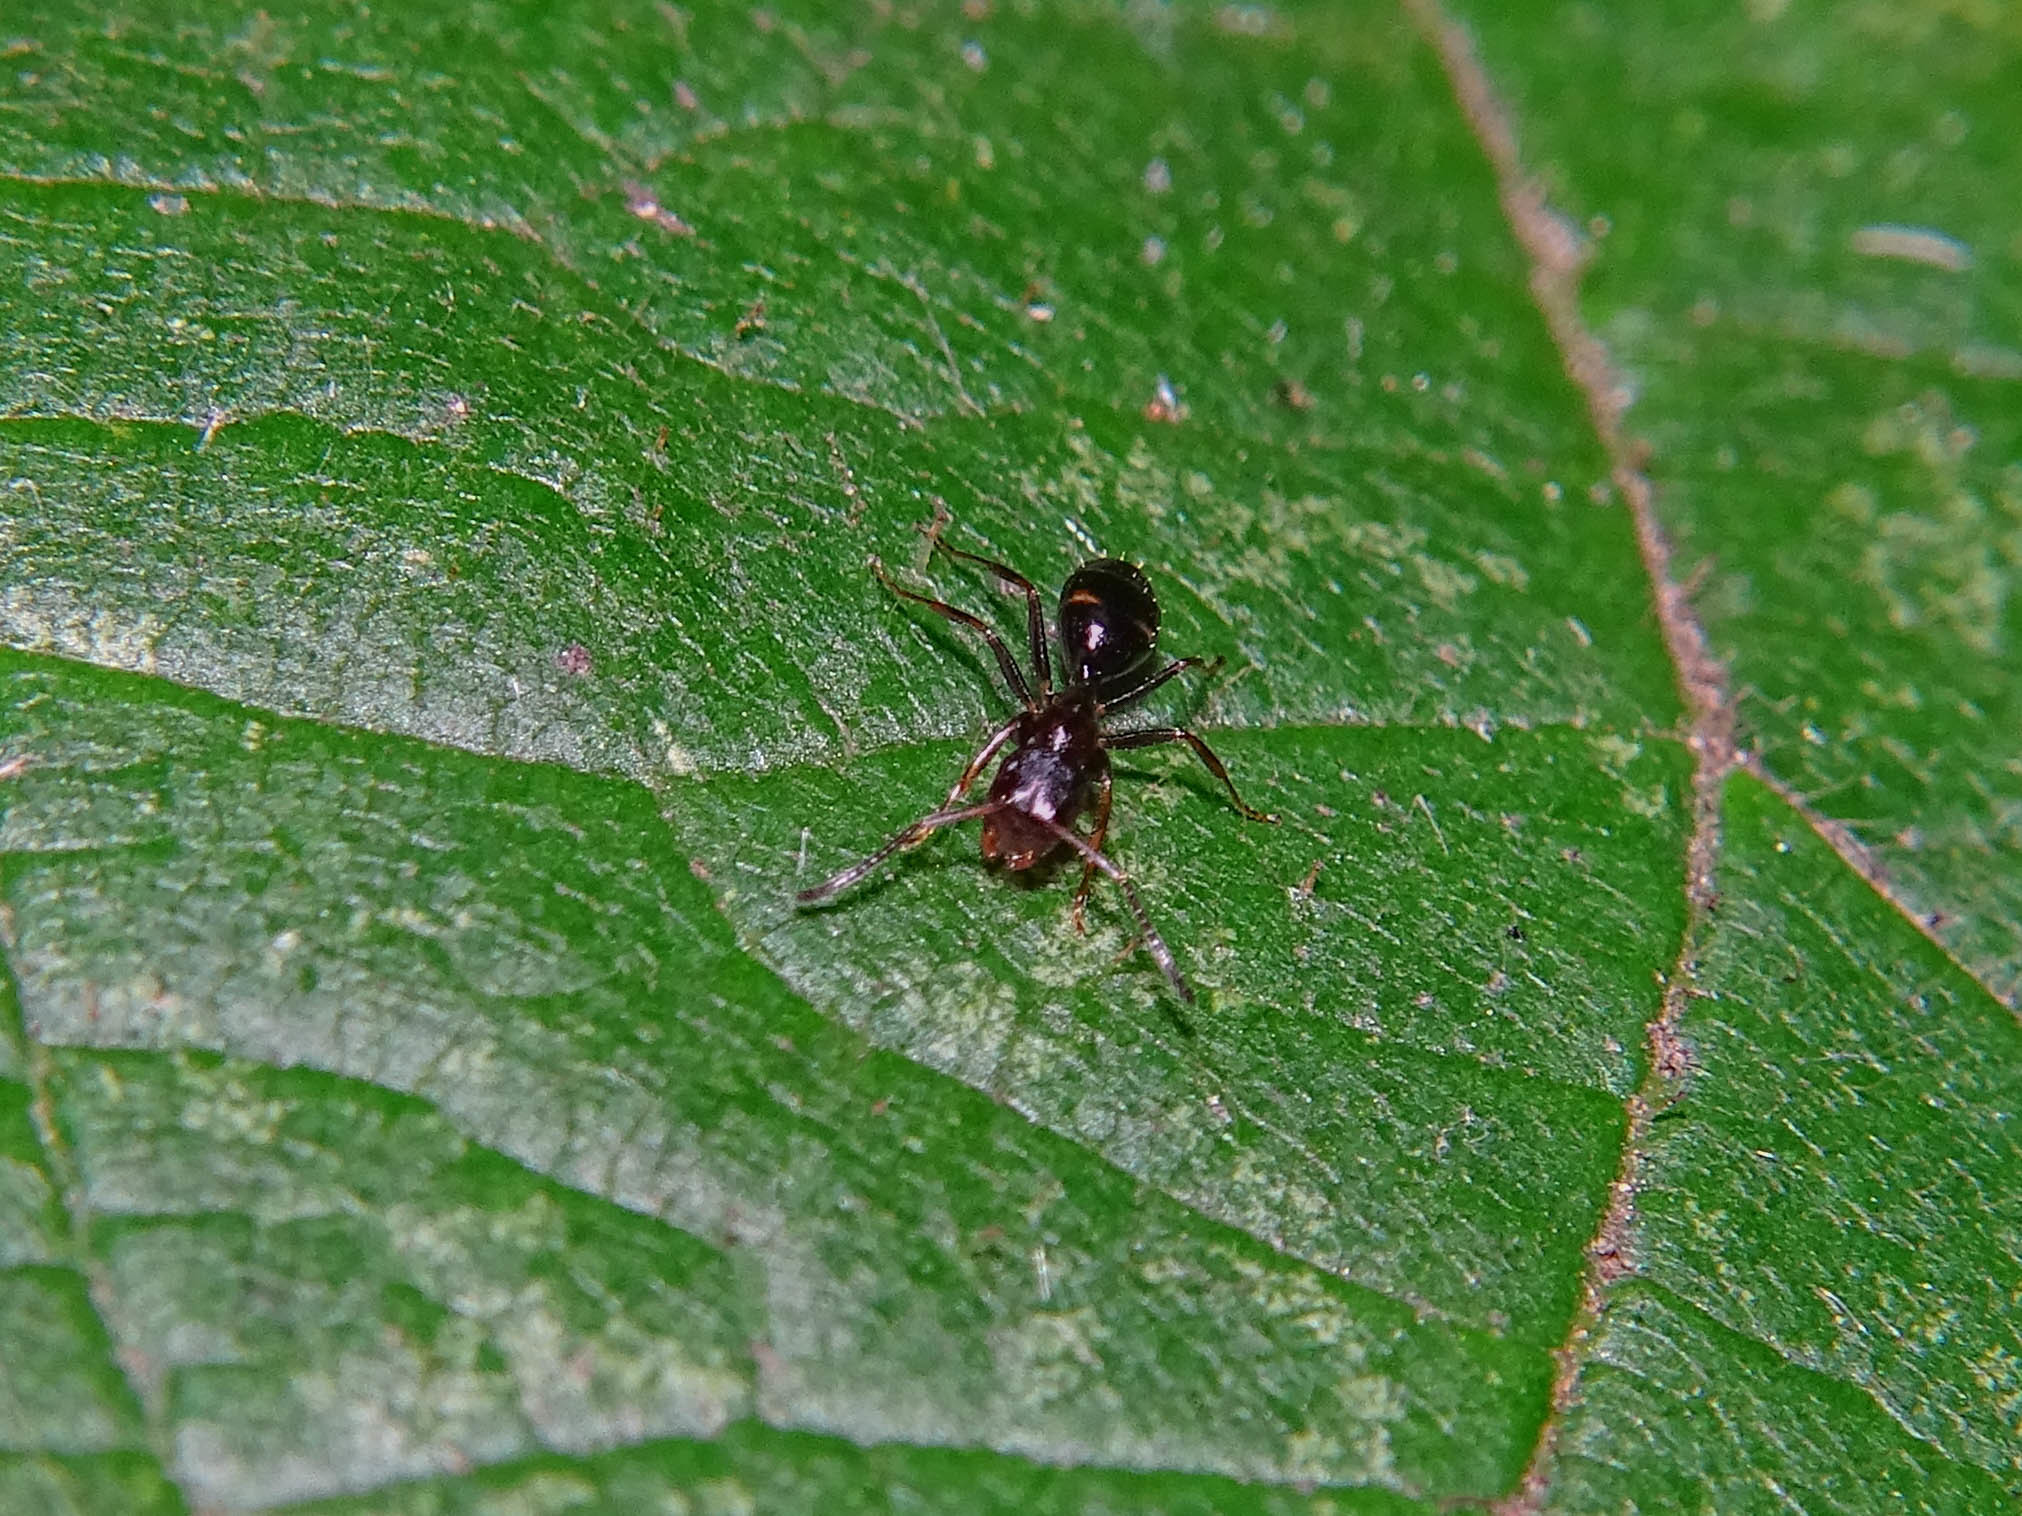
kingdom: Animalia
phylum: Arthropoda
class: Insecta
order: Hymenoptera
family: Formicidae
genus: Camponotus
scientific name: Camponotus truncatus
